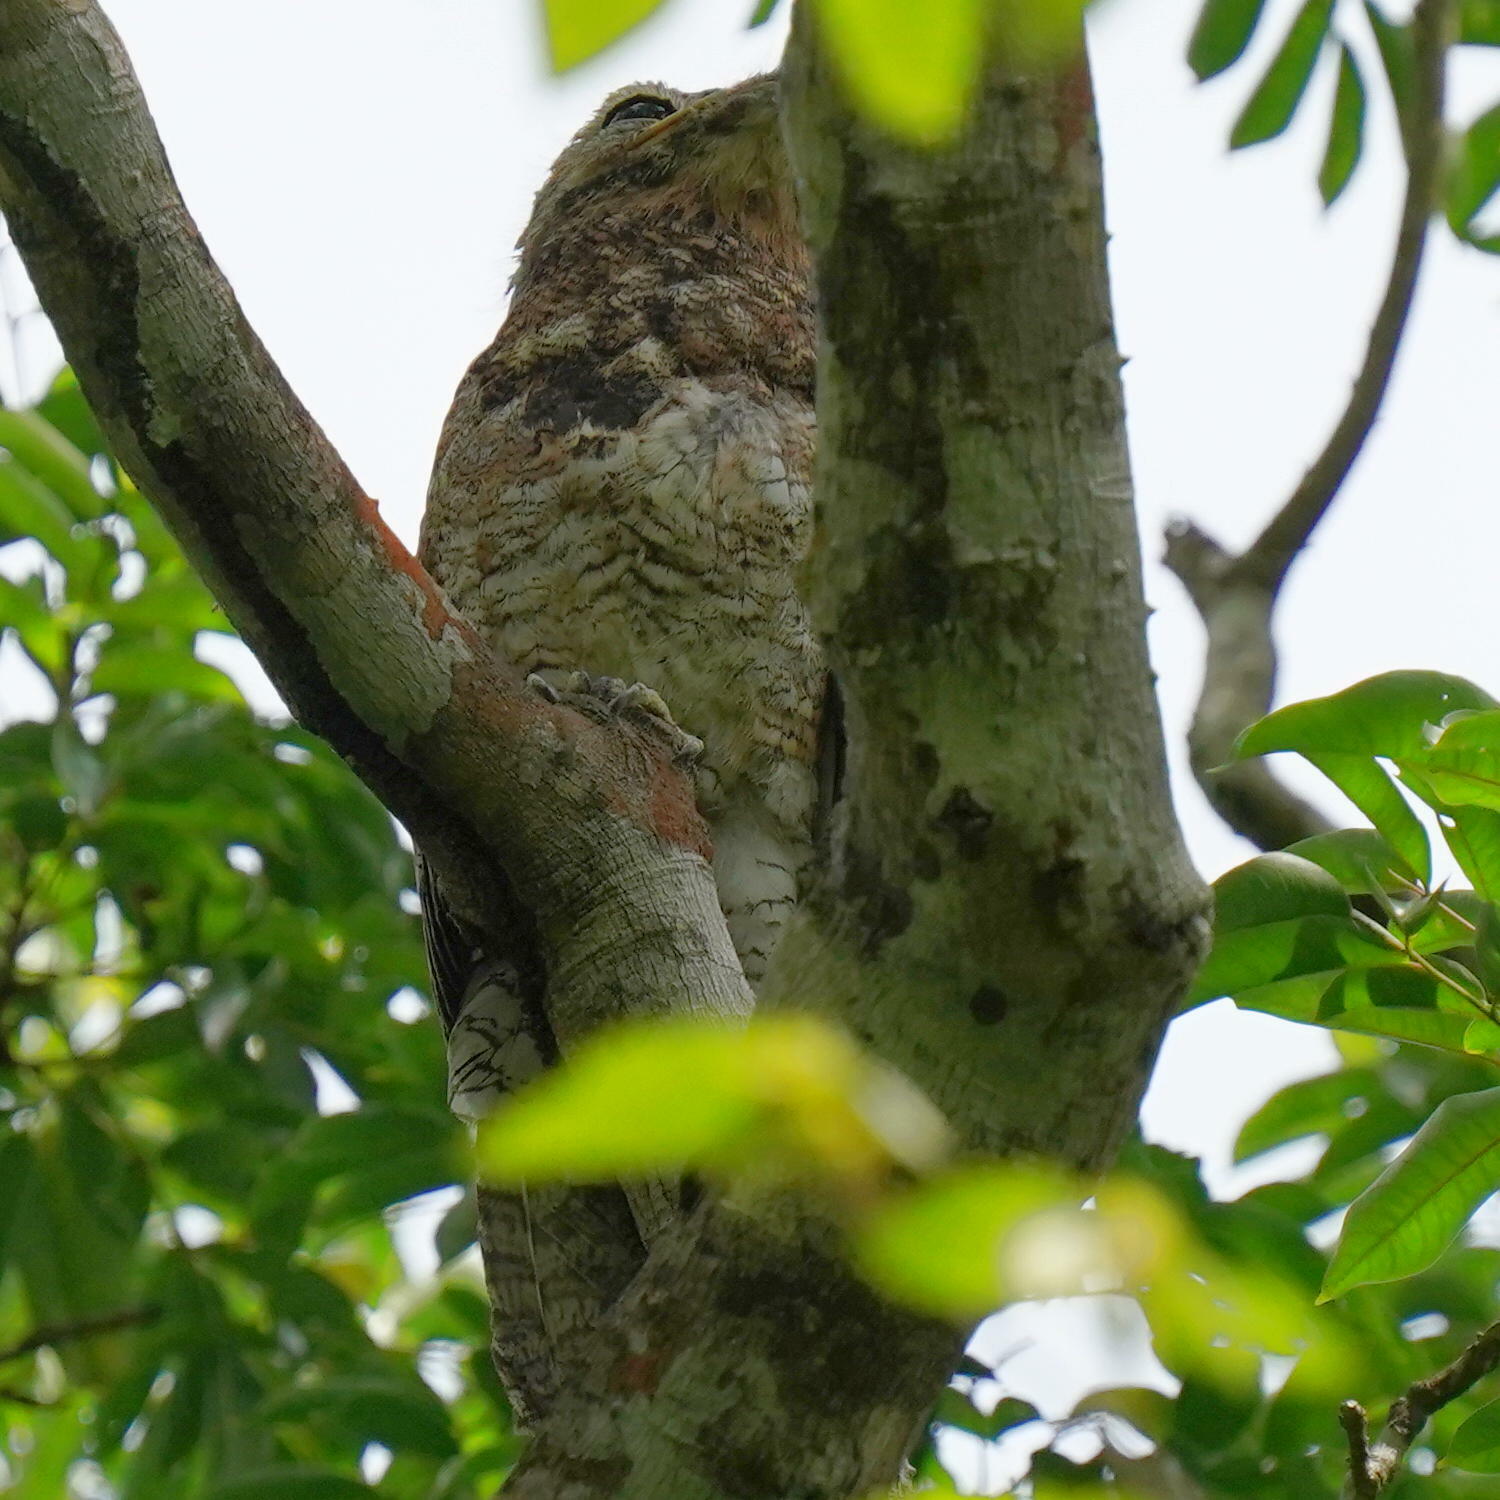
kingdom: Animalia
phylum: Chordata
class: Aves
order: Nyctibiiformes
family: Nyctibiidae
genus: Nyctibius
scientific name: Nyctibius grandis
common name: Great potoo
